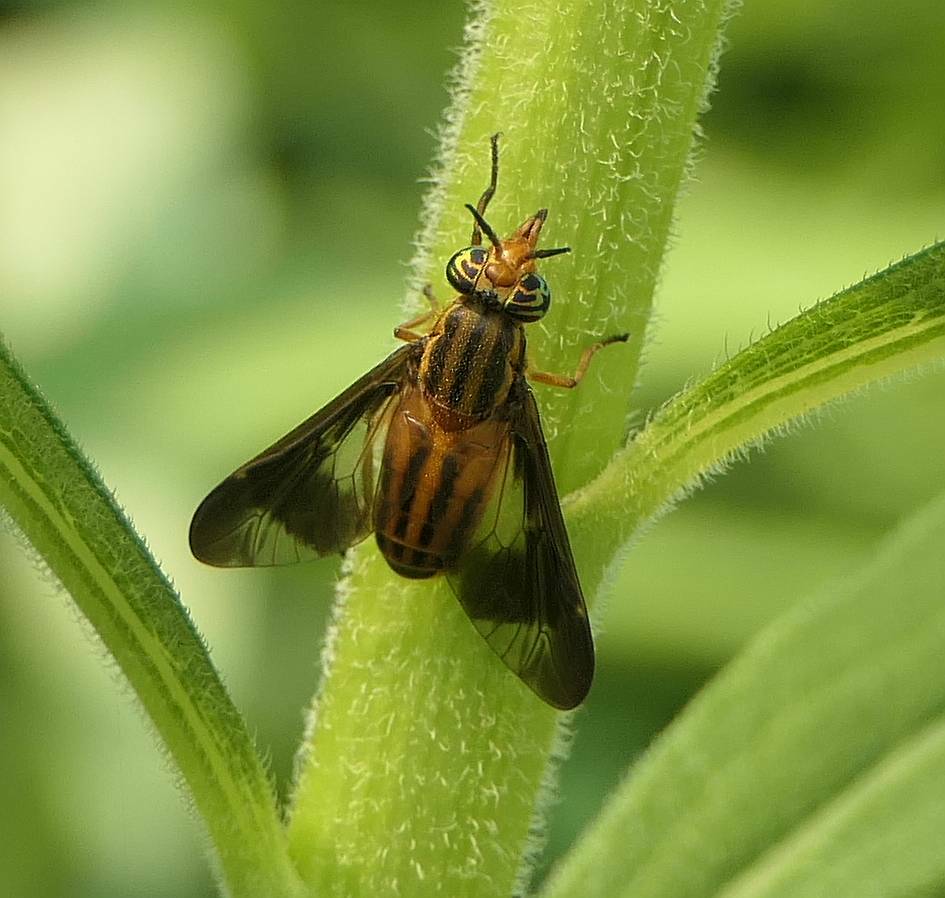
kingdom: Animalia
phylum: Arthropoda
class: Insecta
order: Diptera
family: Tabanidae
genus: Chrysops
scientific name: Chrysops vittatus
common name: Striped deer fly
